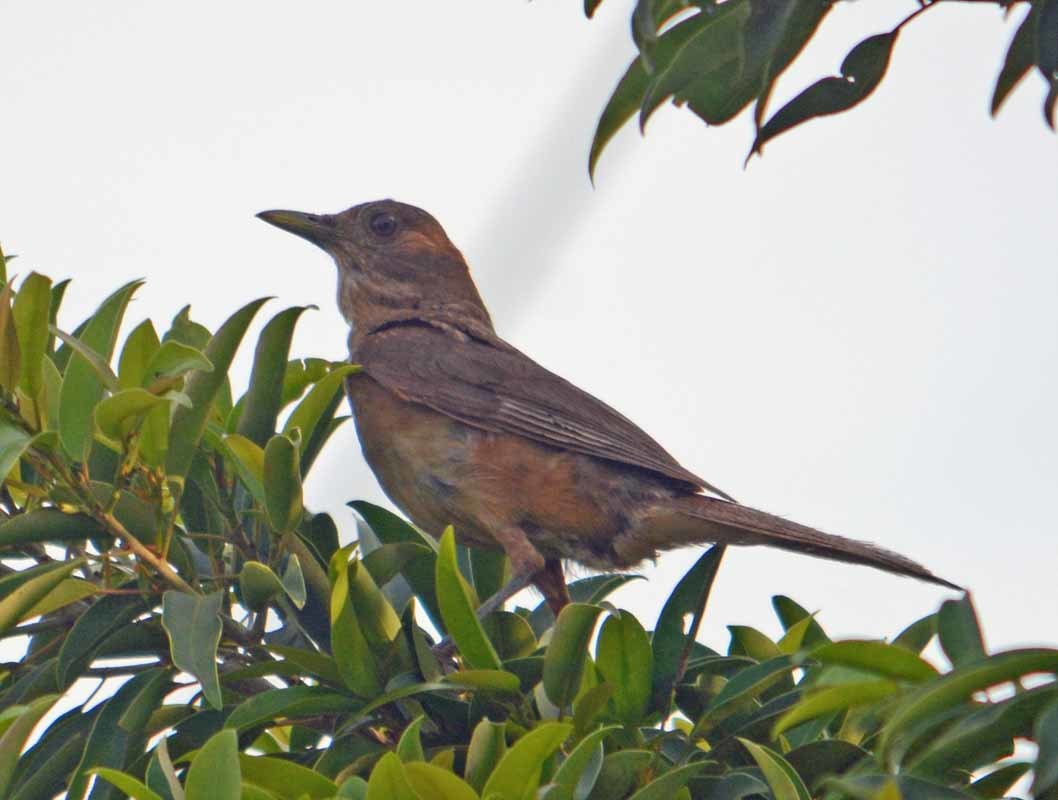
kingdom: Animalia
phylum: Chordata
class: Aves
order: Passeriformes
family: Turdidae
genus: Turdus
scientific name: Turdus grayi
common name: Clay-colored thrush
